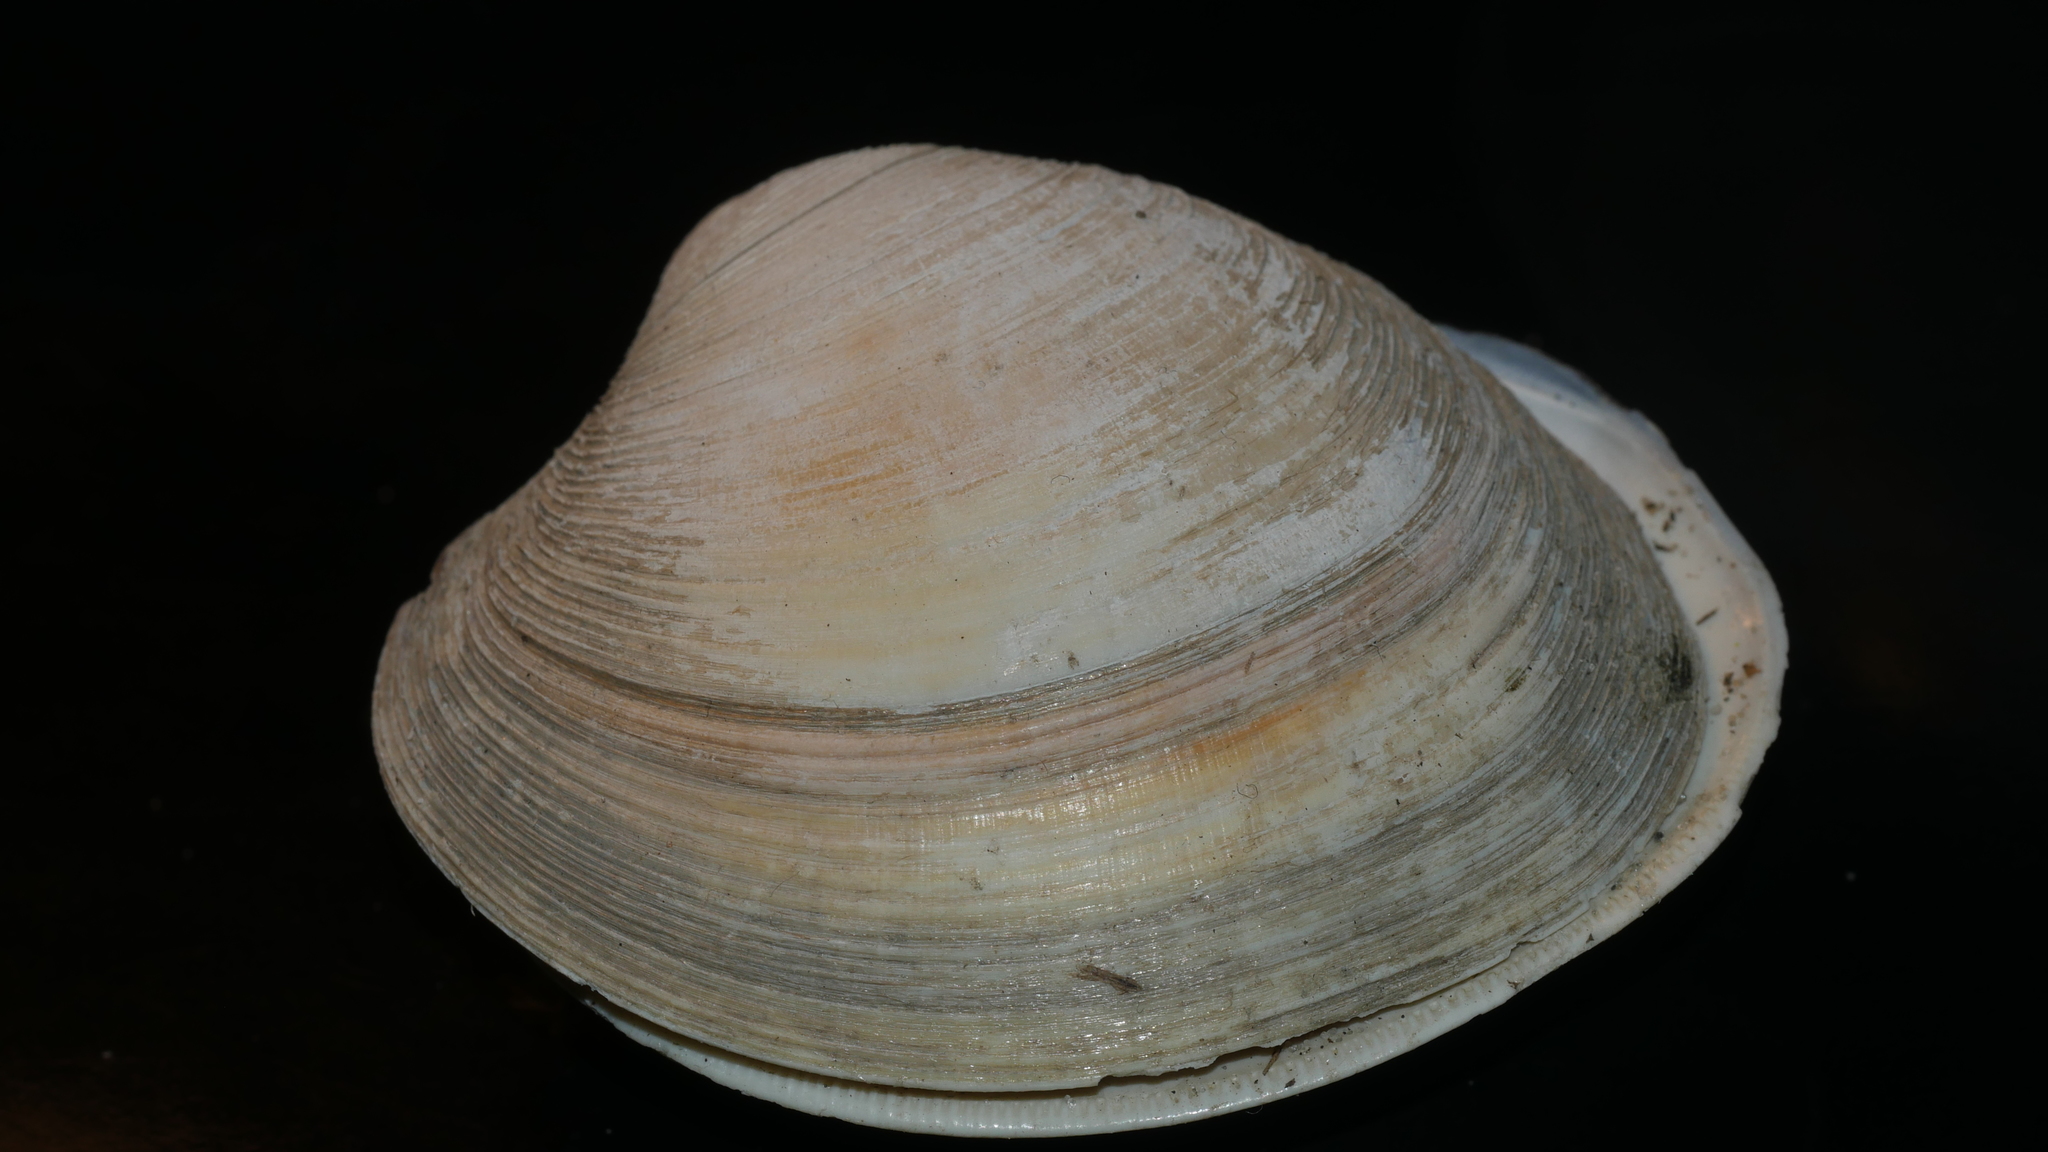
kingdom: Animalia
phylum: Mollusca
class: Bivalvia
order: Venerida
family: Veneridae
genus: Mercenaria
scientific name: Mercenaria mercenaria
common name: American hard-shelled clam
